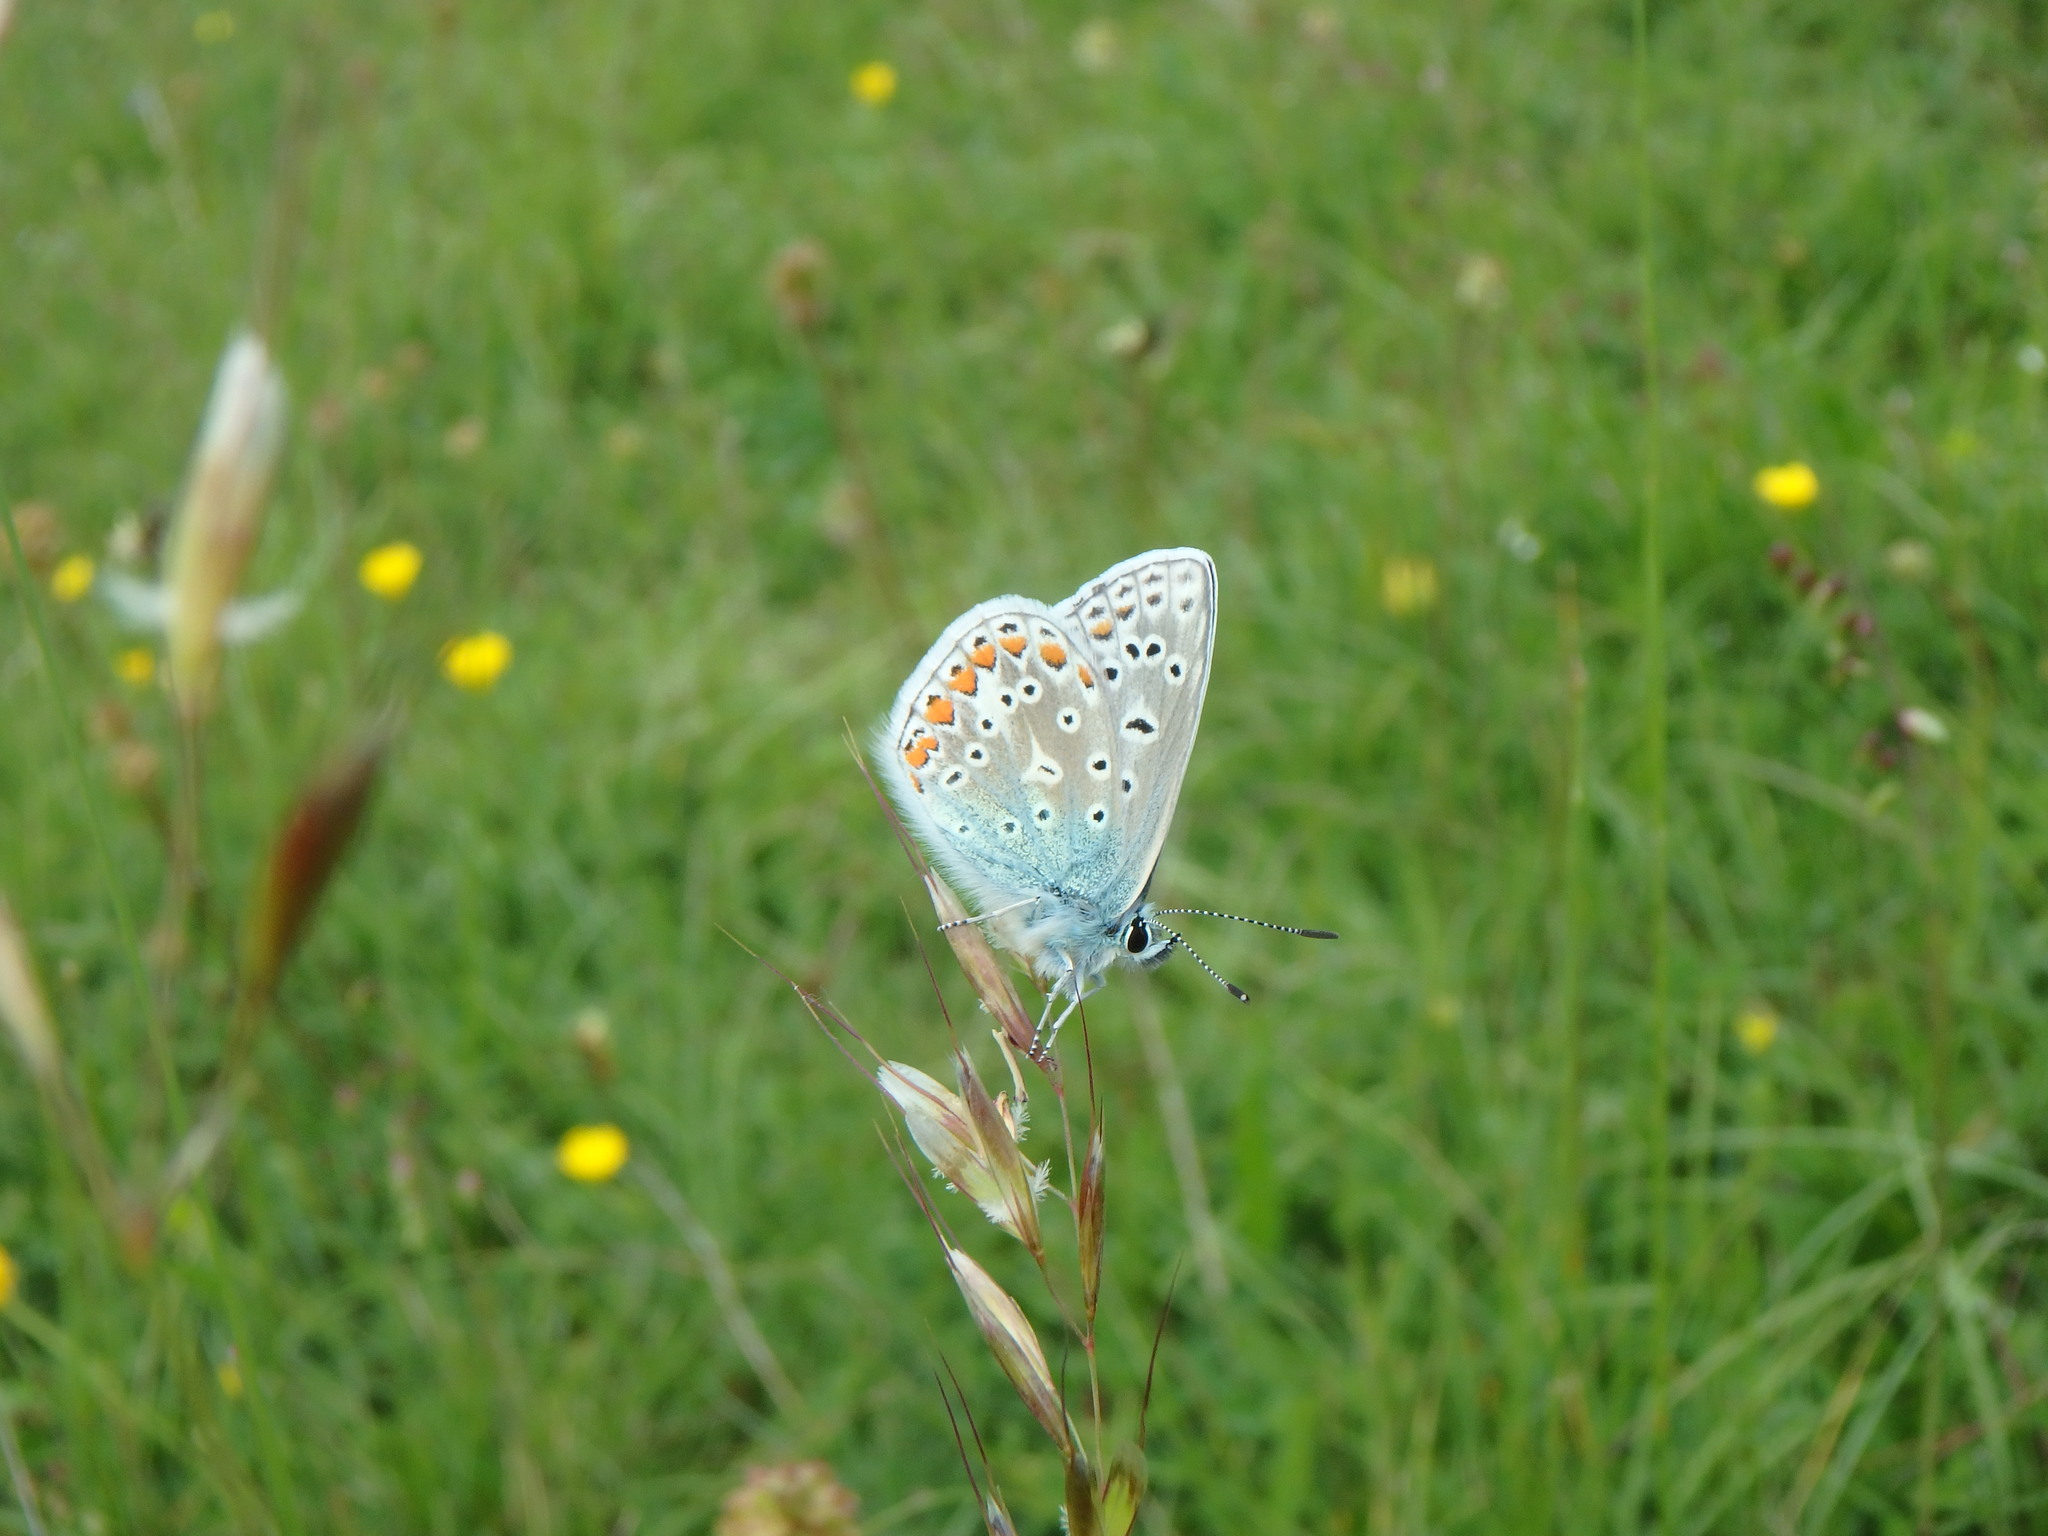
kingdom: Animalia
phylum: Arthropoda
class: Insecta
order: Lepidoptera
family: Lycaenidae
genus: Polyommatus
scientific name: Polyommatus icarus
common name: Common blue
